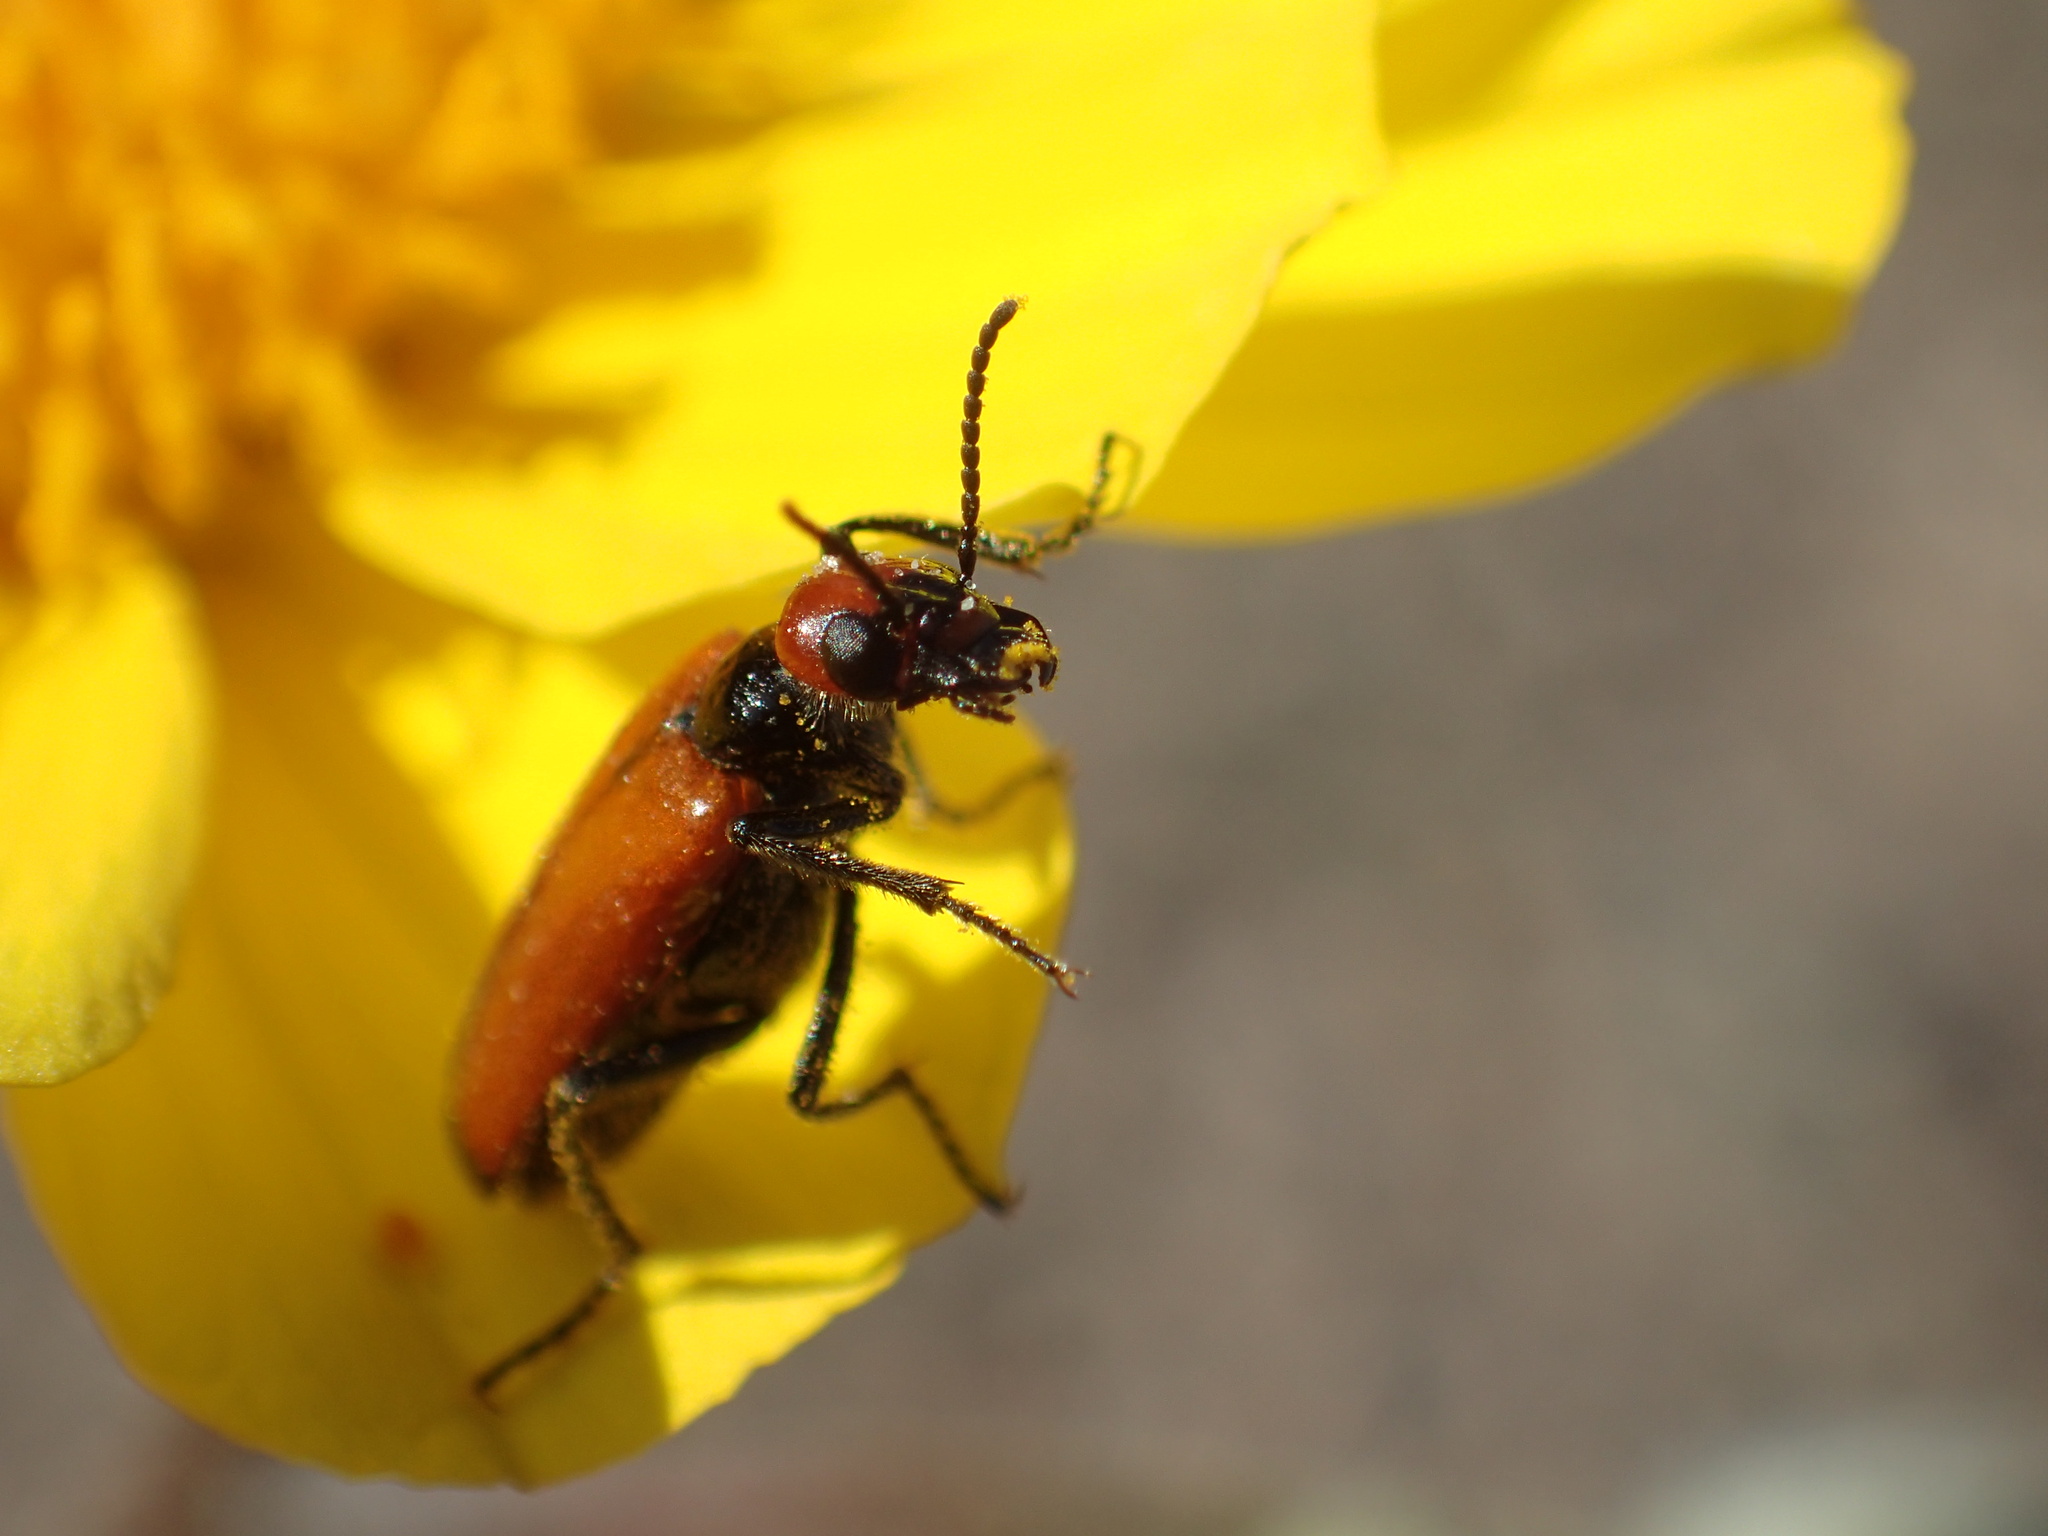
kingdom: Animalia
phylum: Arthropoda
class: Insecta
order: Coleoptera
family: Meloidae
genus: Eupompha
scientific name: Eupompha schwarzi
